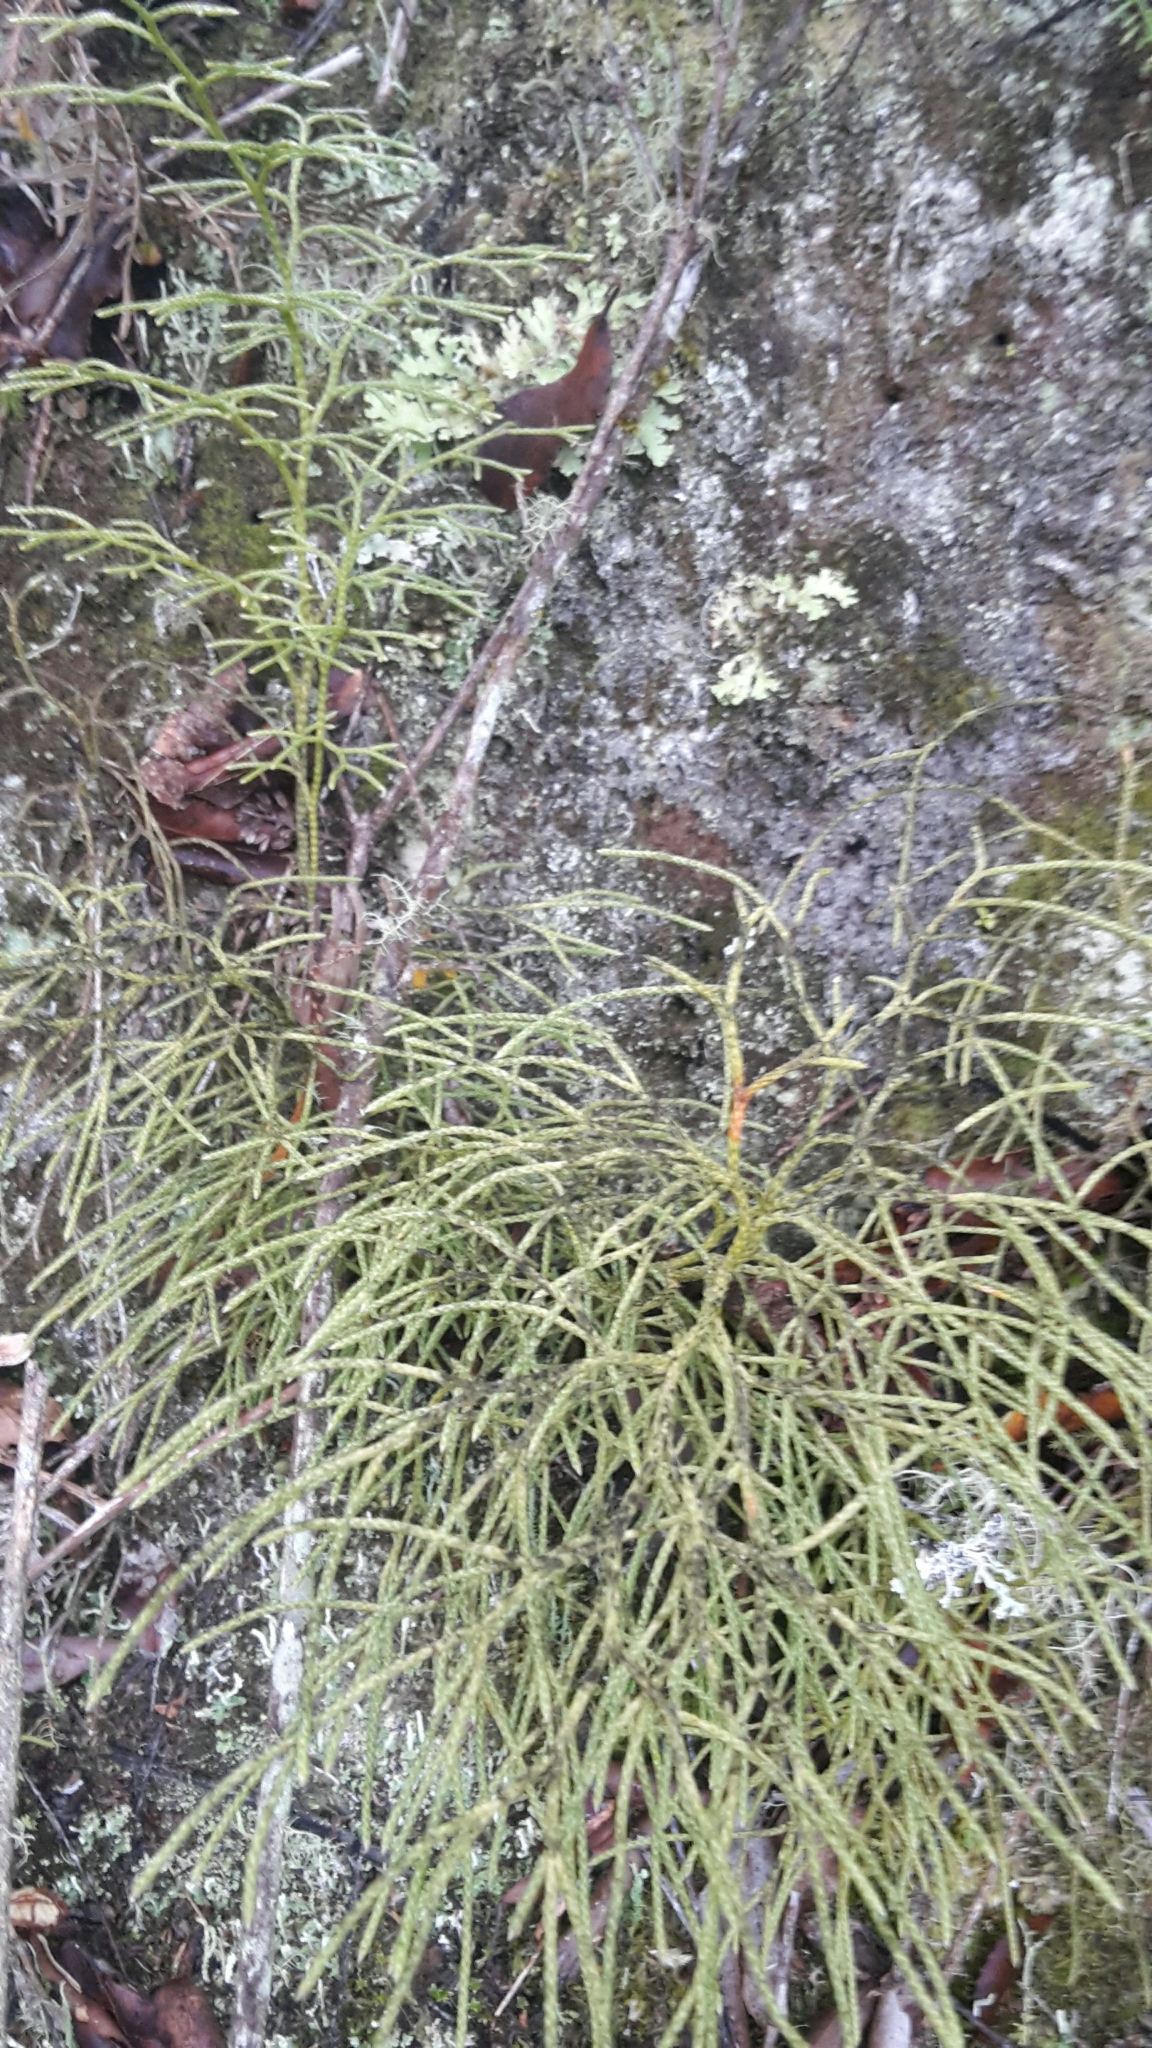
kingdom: Plantae
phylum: Tracheophyta
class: Lycopodiopsida
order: Lycopodiales
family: Lycopodiaceae
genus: Pseudolycopodium
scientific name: Pseudolycopodium densum
